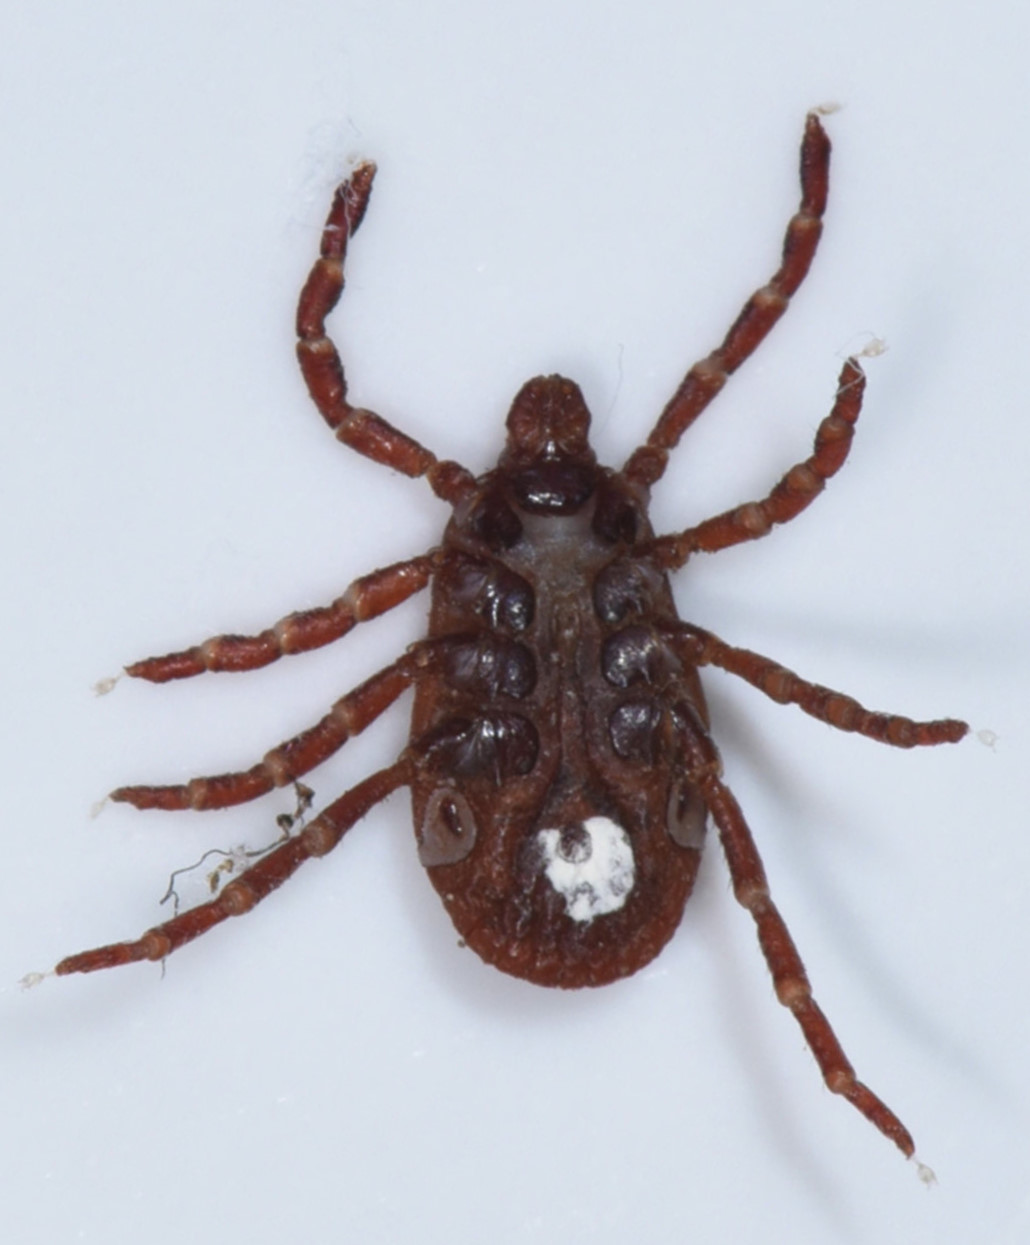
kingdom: Animalia
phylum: Arthropoda
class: Arachnida
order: Ixodida
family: Ixodidae
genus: Dermacentor
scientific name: Dermacentor variabilis
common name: American dog tick
